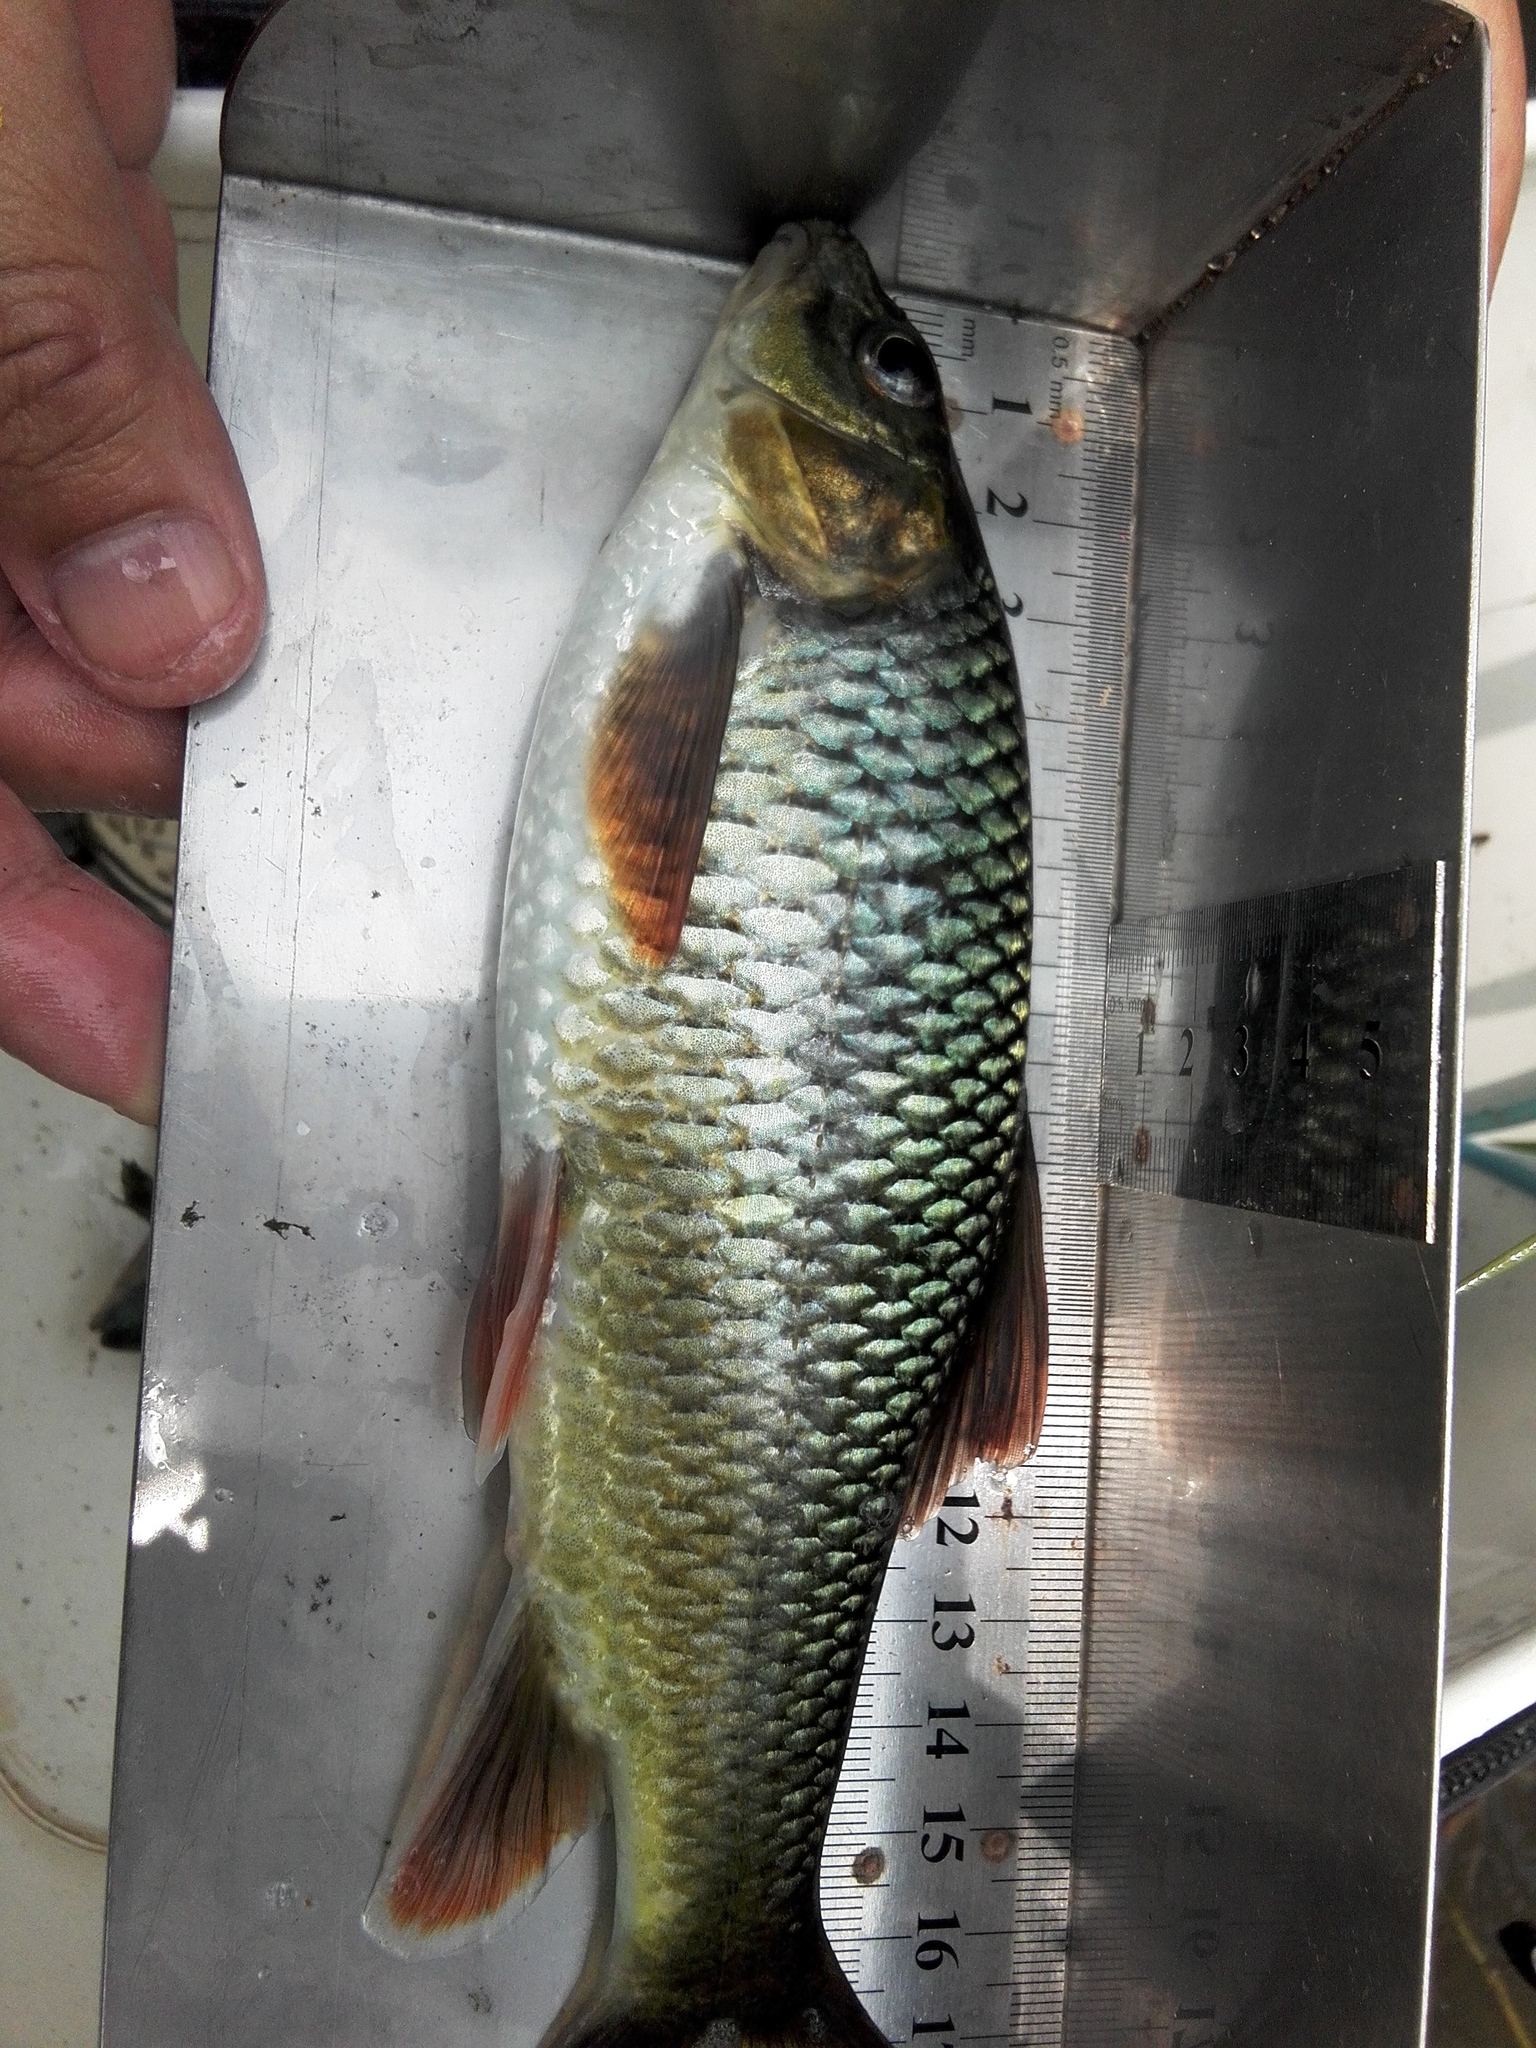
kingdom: Animalia
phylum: Chordata
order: Cypriniformes
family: Cyprinidae
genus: Acrossocheilus
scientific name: Acrossocheilus paradoxus
